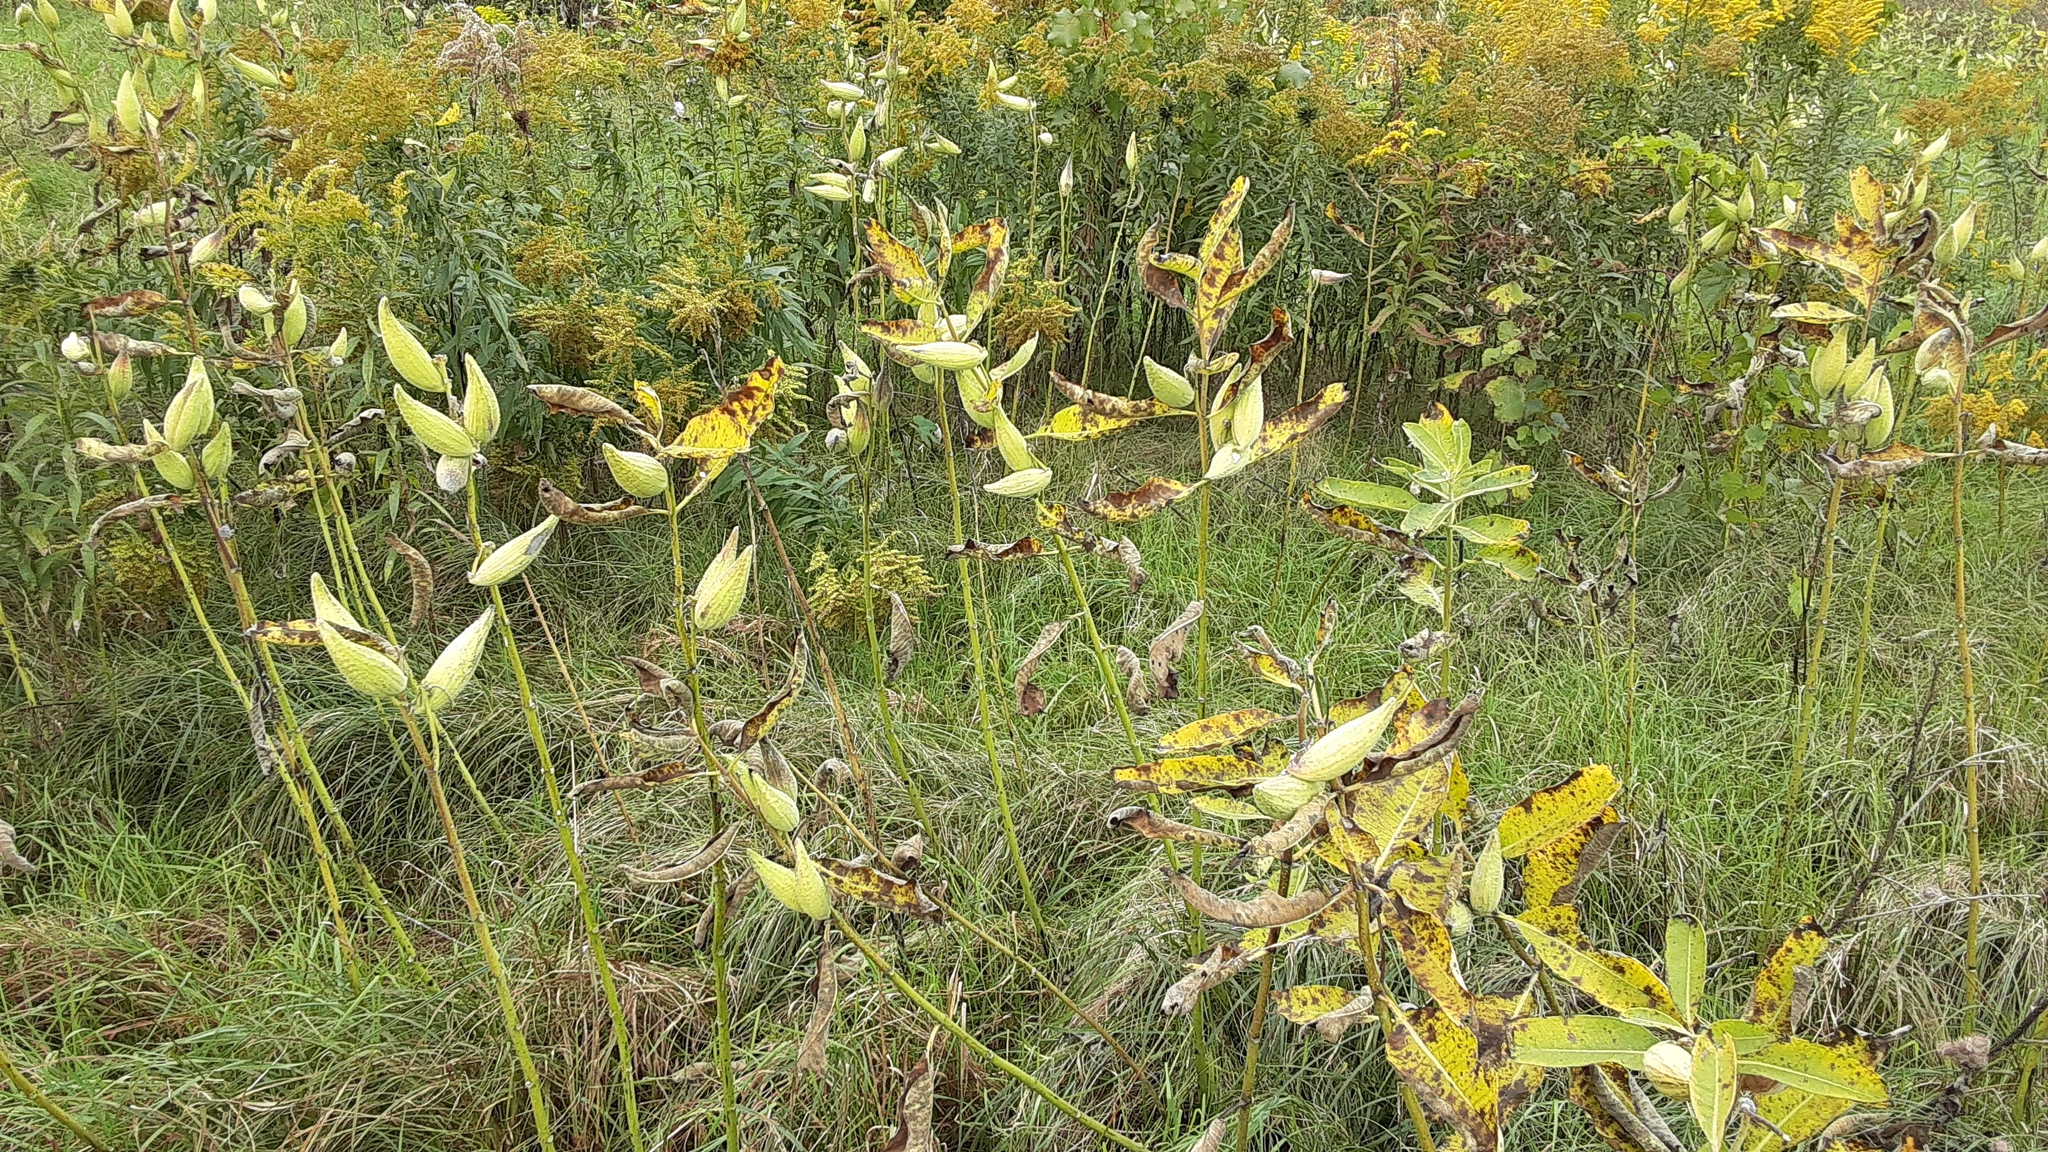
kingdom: Plantae
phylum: Tracheophyta
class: Magnoliopsida
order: Gentianales
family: Apocynaceae
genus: Asclepias
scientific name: Asclepias syriaca
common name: Common milkweed
